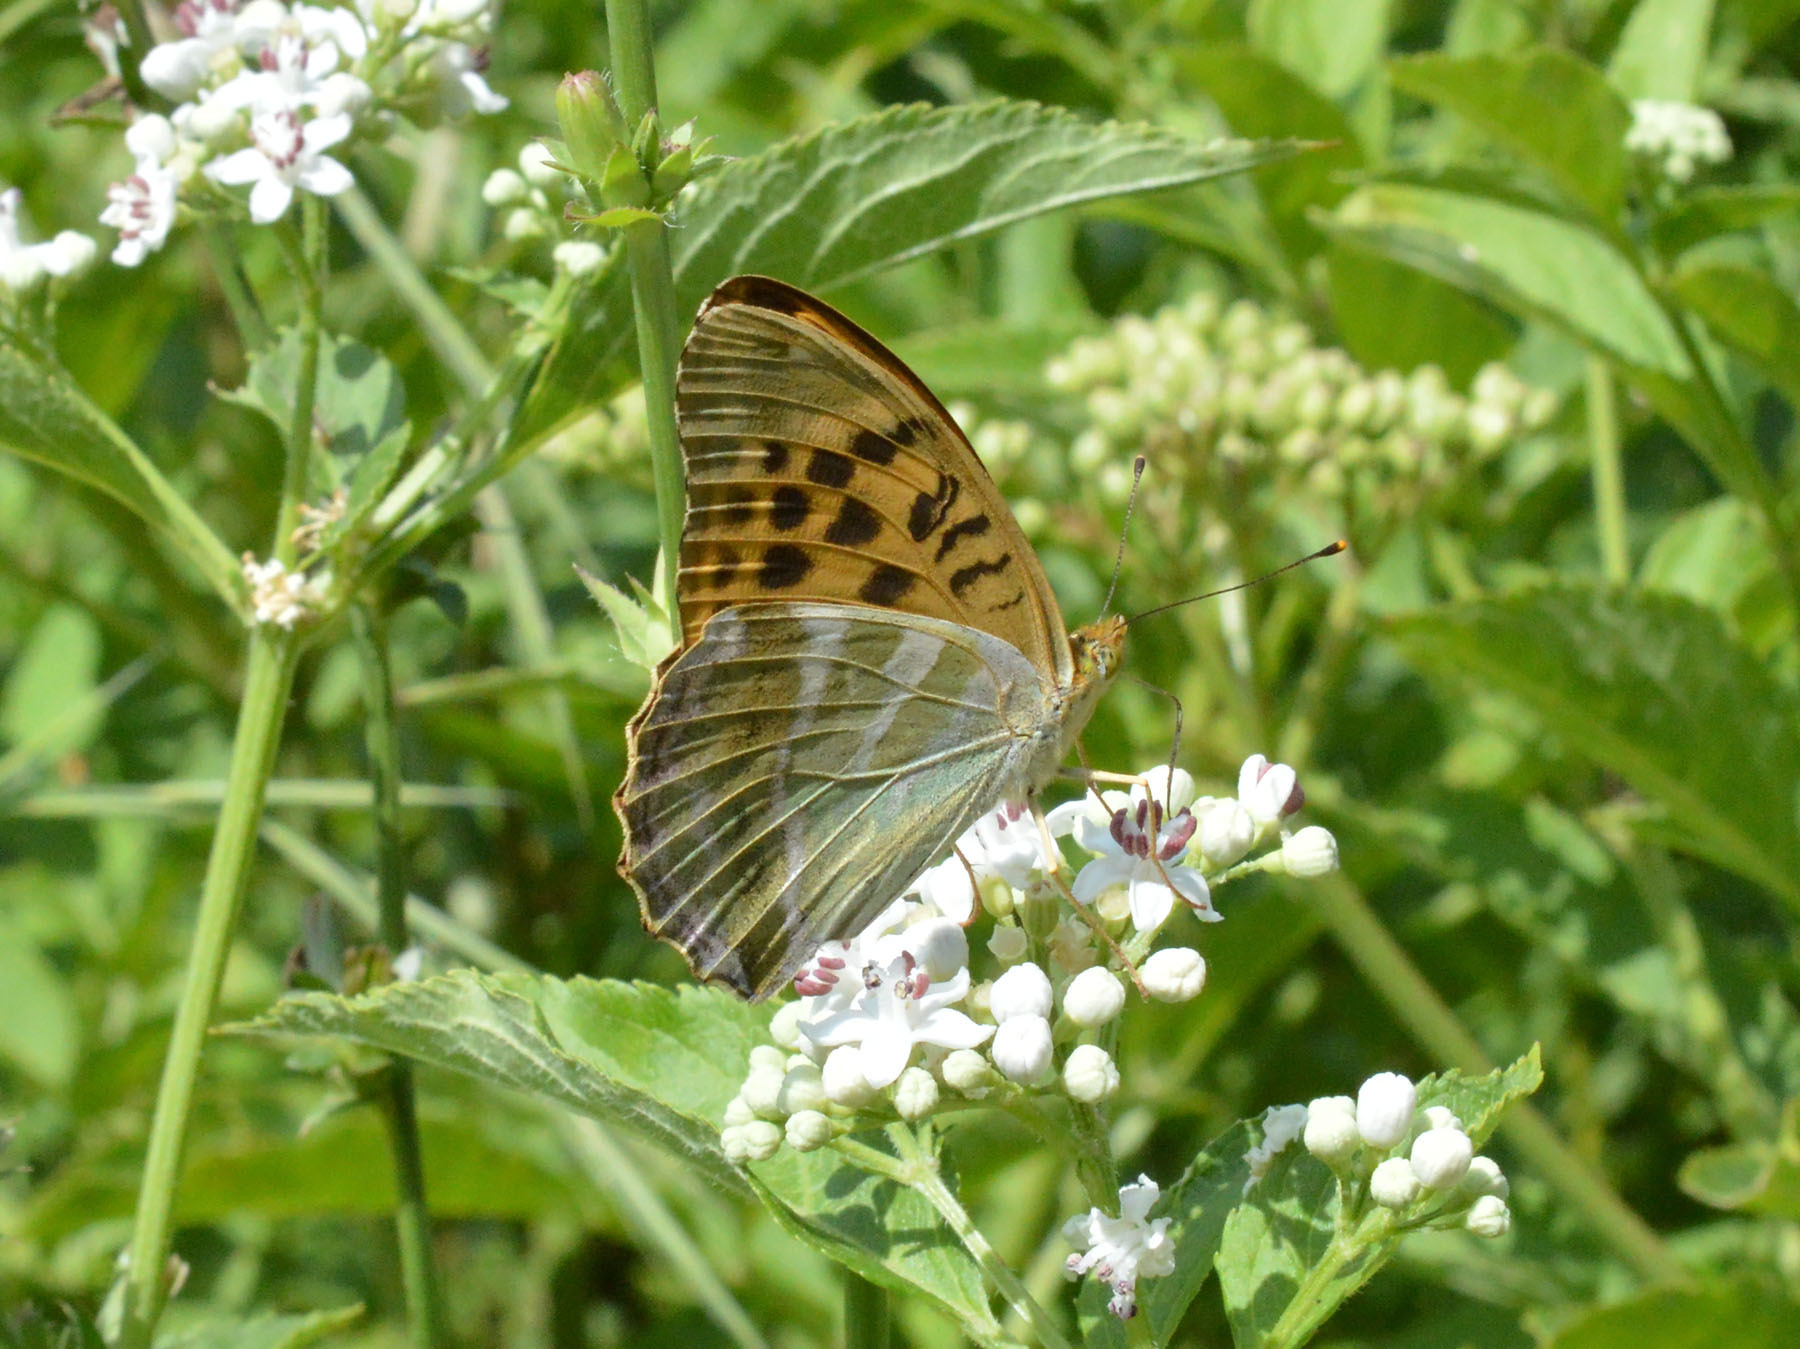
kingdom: Animalia
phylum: Arthropoda
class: Insecta
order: Lepidoptera
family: Nymphalidae
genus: Argynnis
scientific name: Argynnis paphia
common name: Silver-washed fritillary
